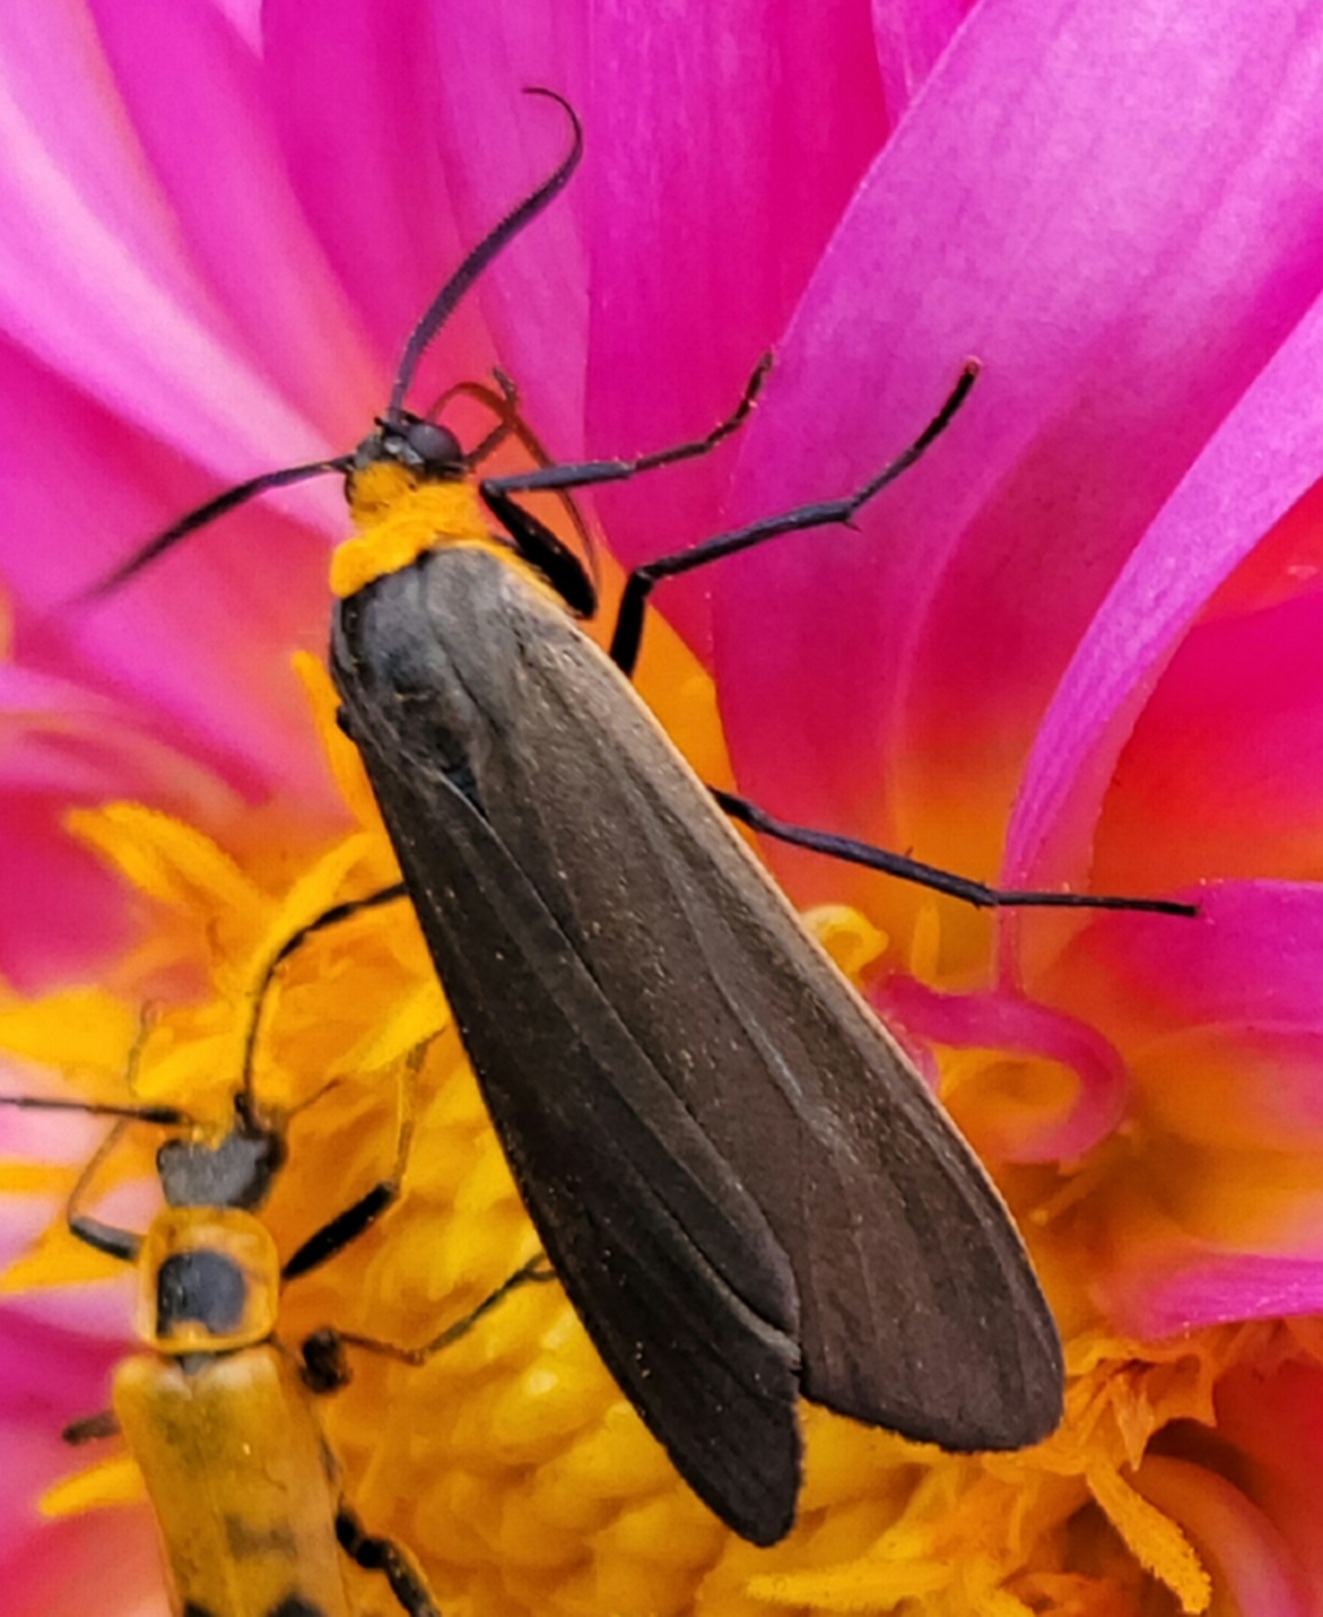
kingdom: Animalia
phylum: Arthropoda
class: Insecta
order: Lepidoptera
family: Erebidae
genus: Cisseps
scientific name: Cisseps fulvicollis
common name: Yellow-collared scape moth
